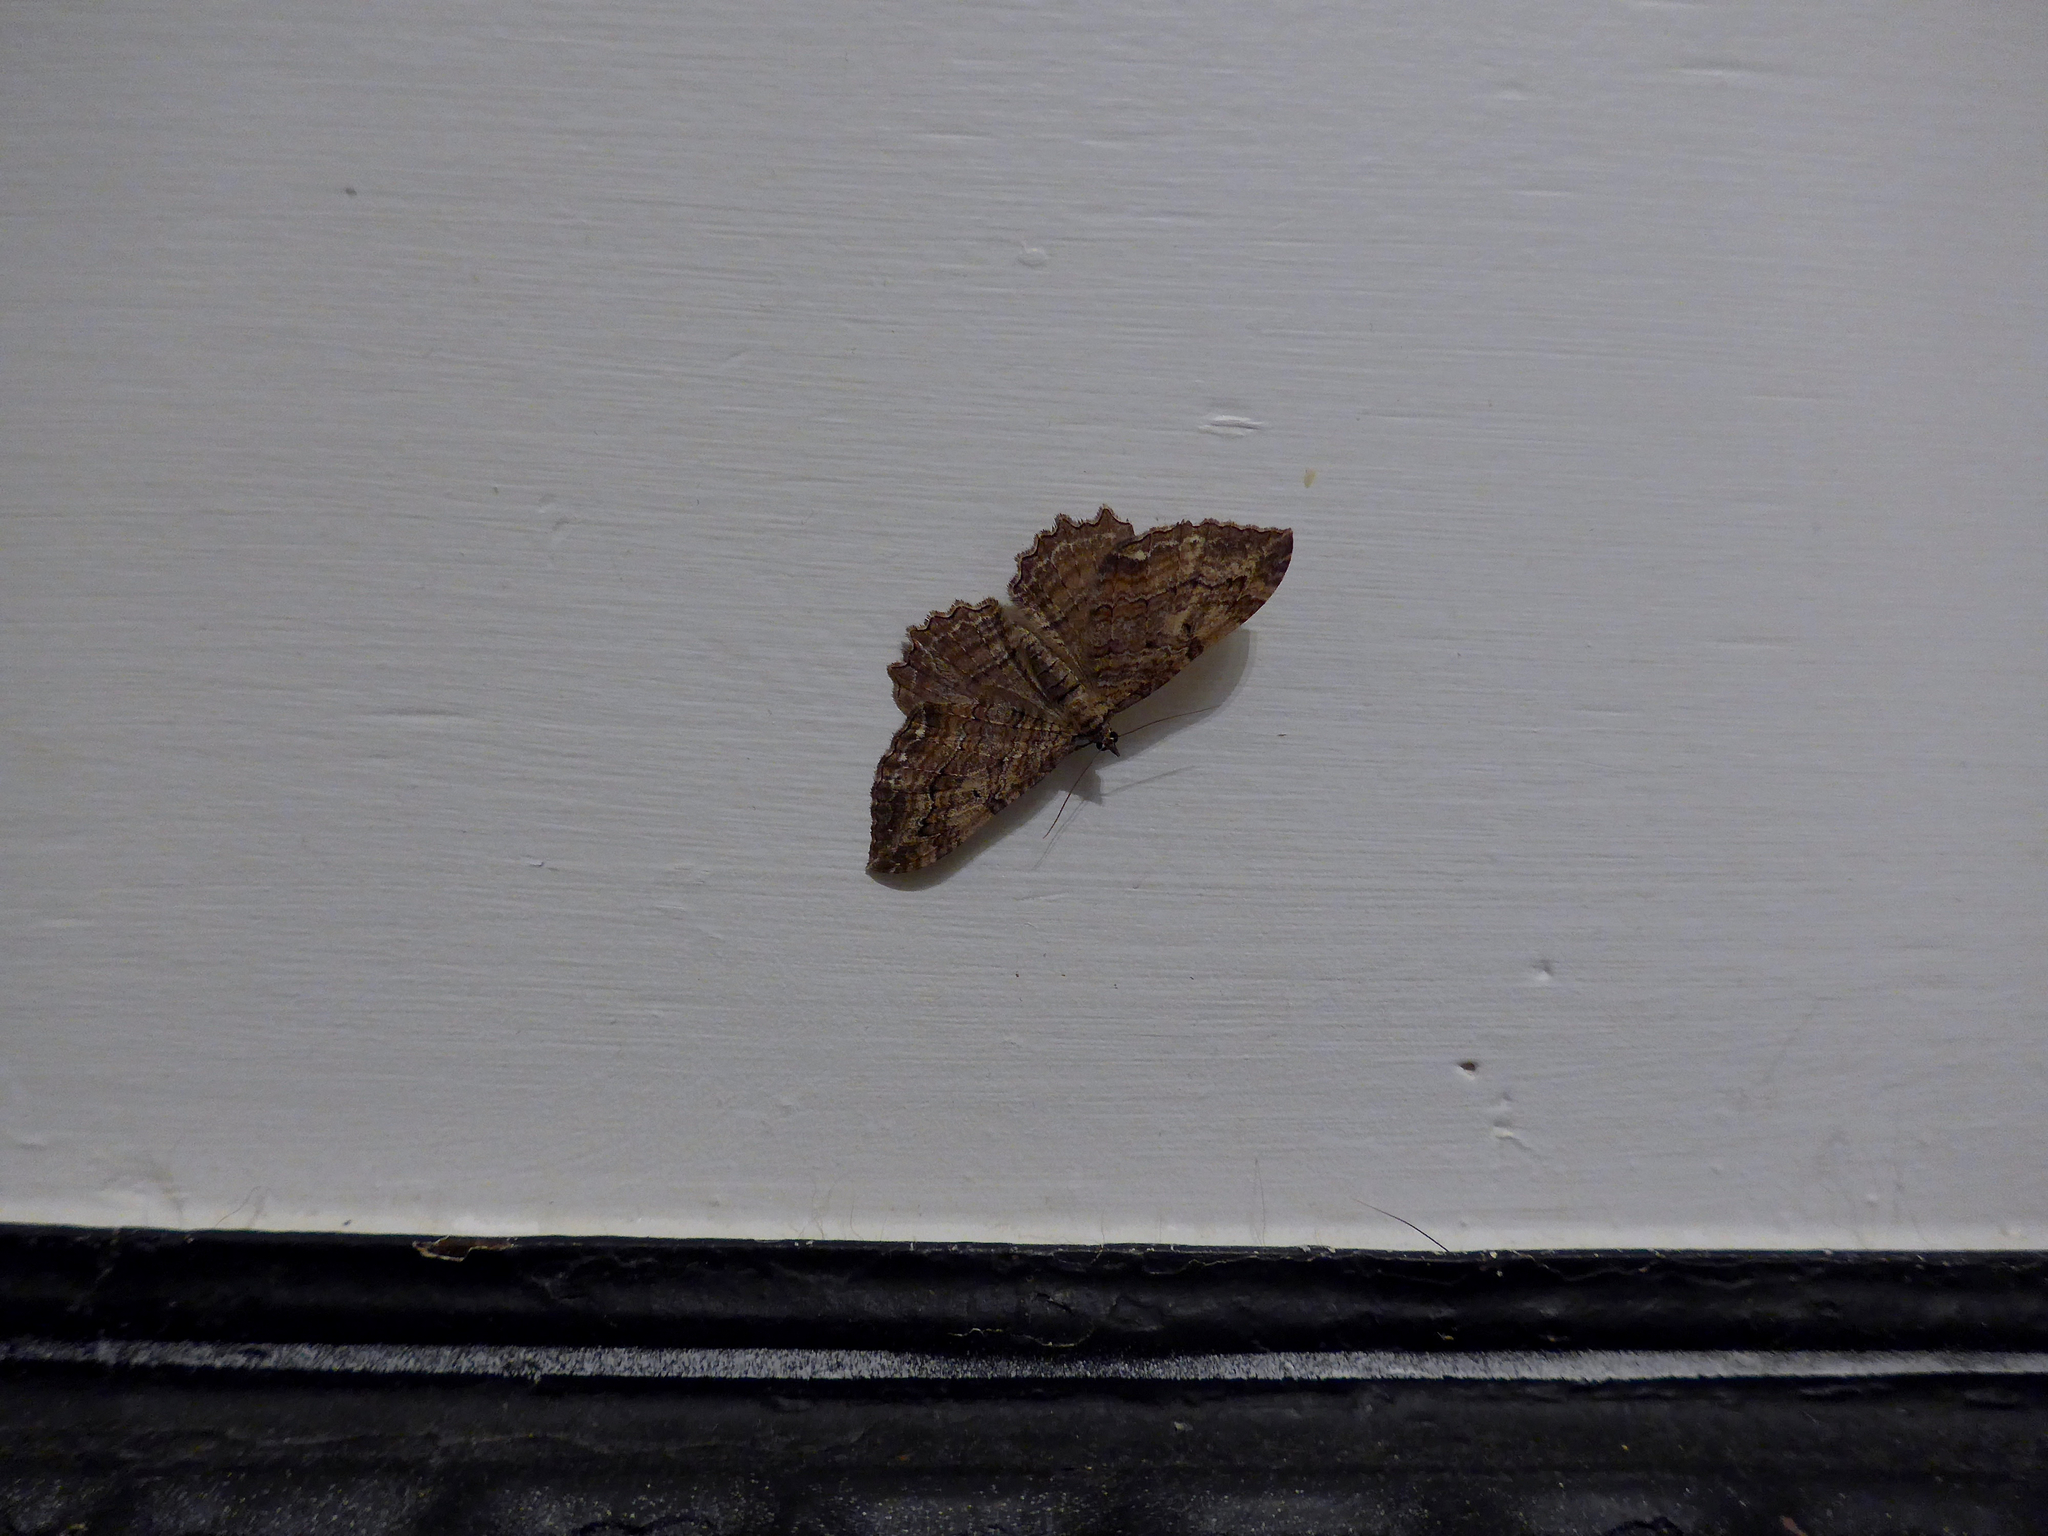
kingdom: Animalia
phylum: Arthropoda
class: Insecta
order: Lepidoptera
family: Geometridae
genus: Rheumaptera
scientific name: Rheumaptera
